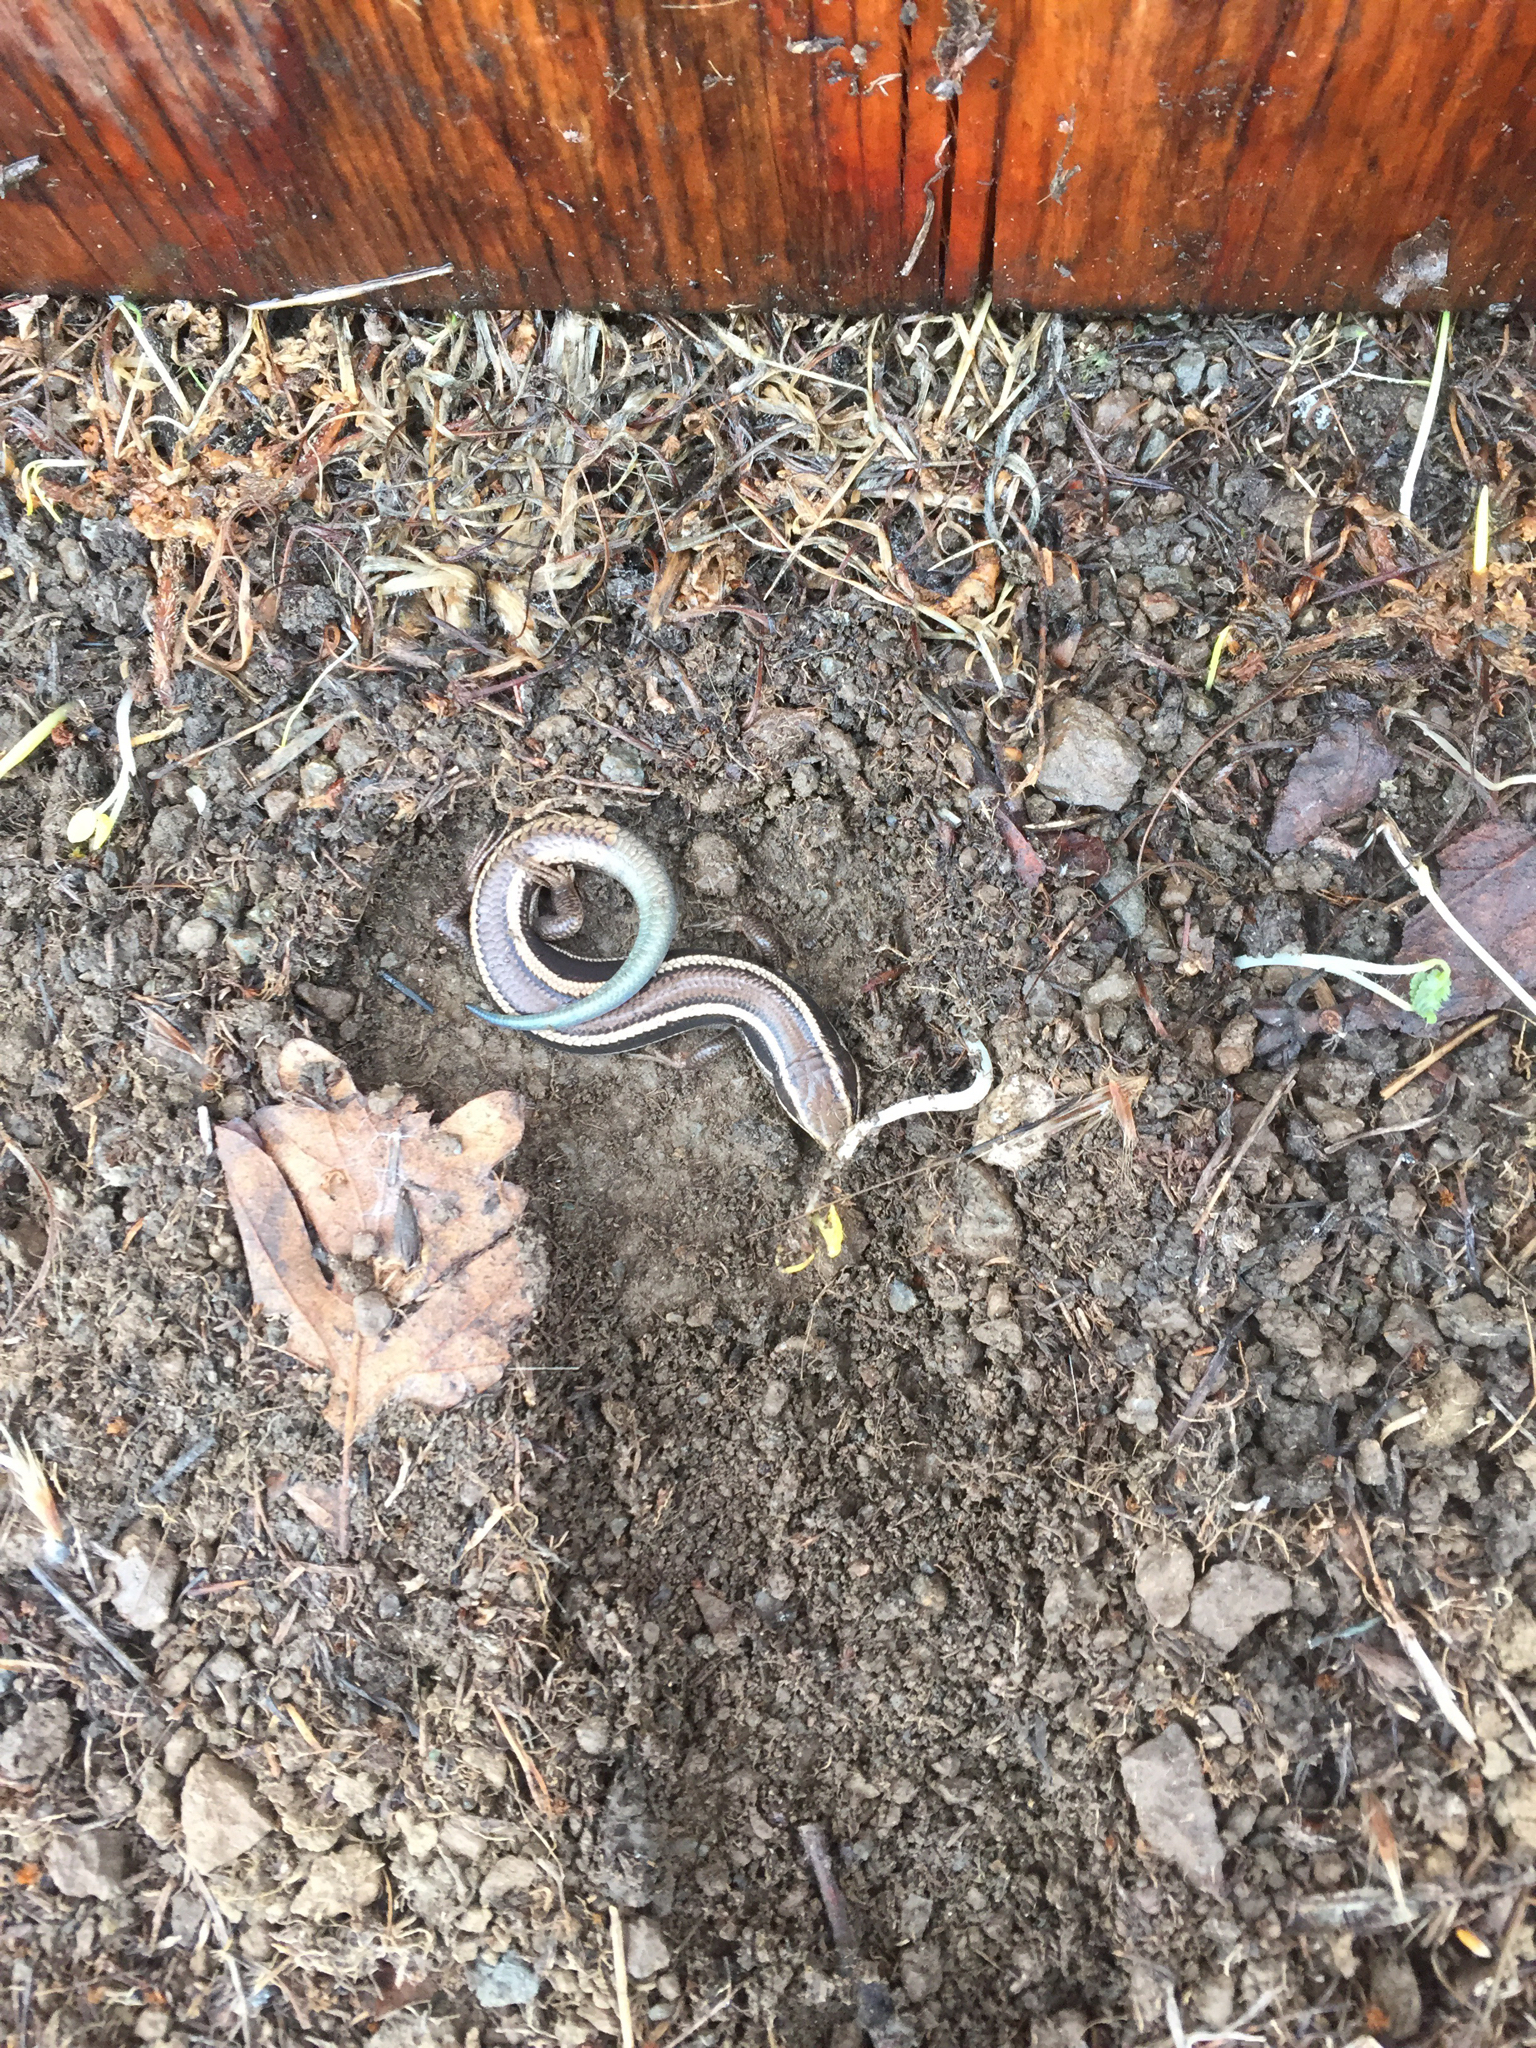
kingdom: Animalia
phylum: Chordata
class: Squamata
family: Scincidae
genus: Plestiodon
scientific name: Plestiodon skiltonianus
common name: Coronado island skink [interparietalis]
